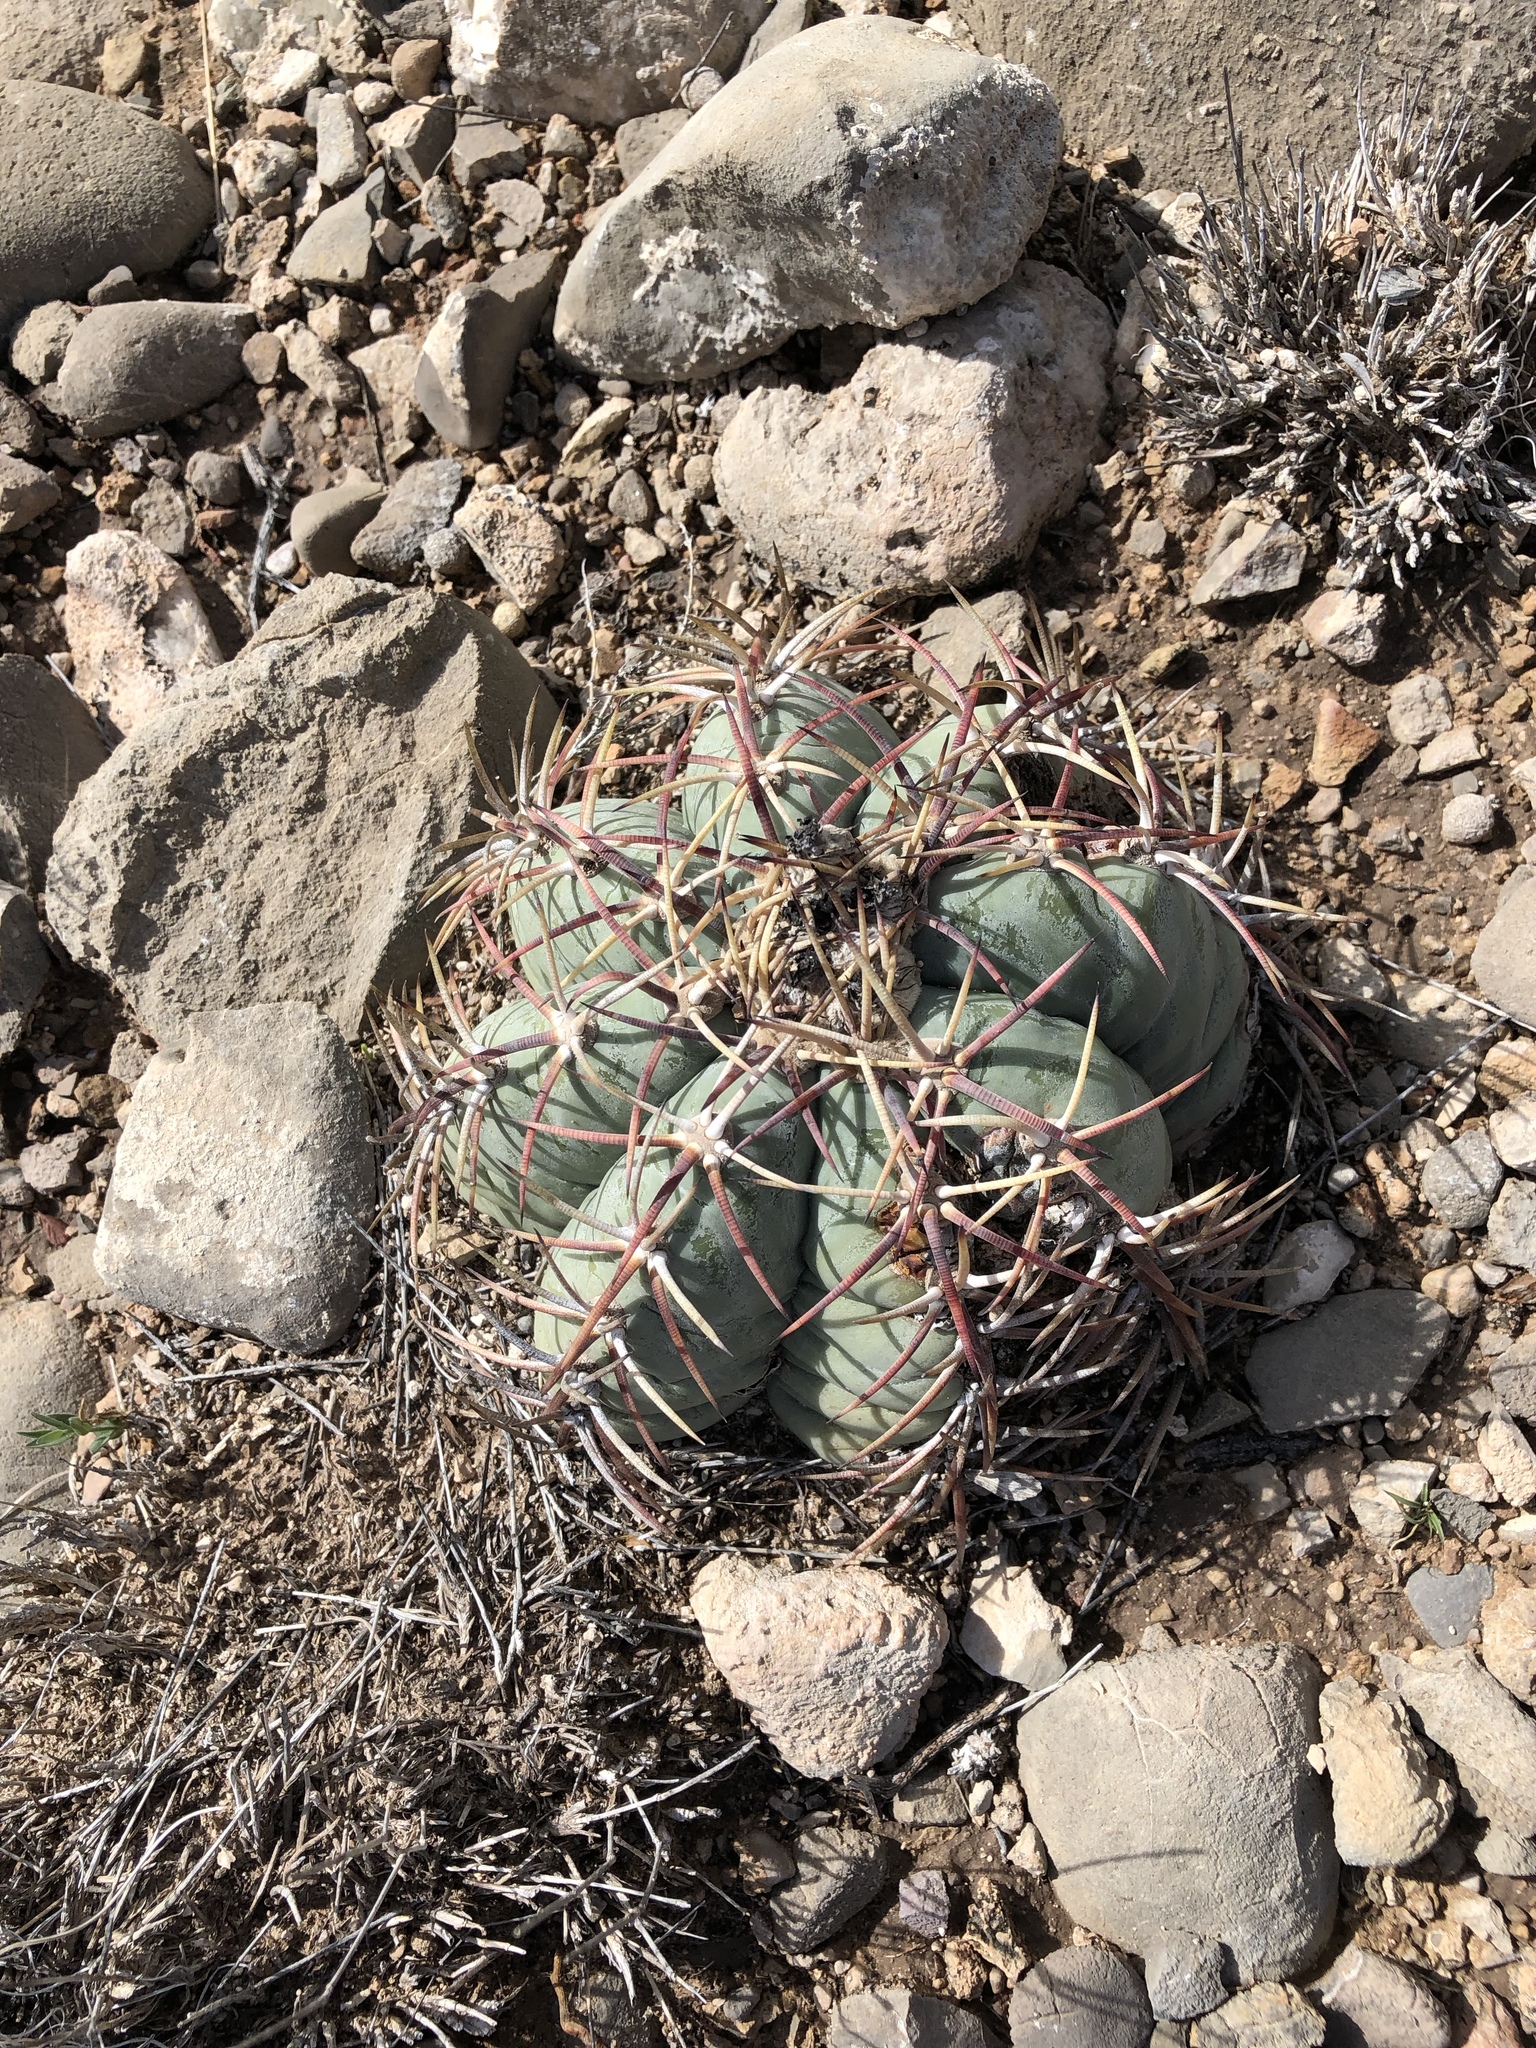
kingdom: Plantae
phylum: Tracheophyta
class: Magnoliopsida
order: Caryophyllales
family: Cactaceae
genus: Echinocactus
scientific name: Echinocactus horizonthalonius
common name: Devilshead
